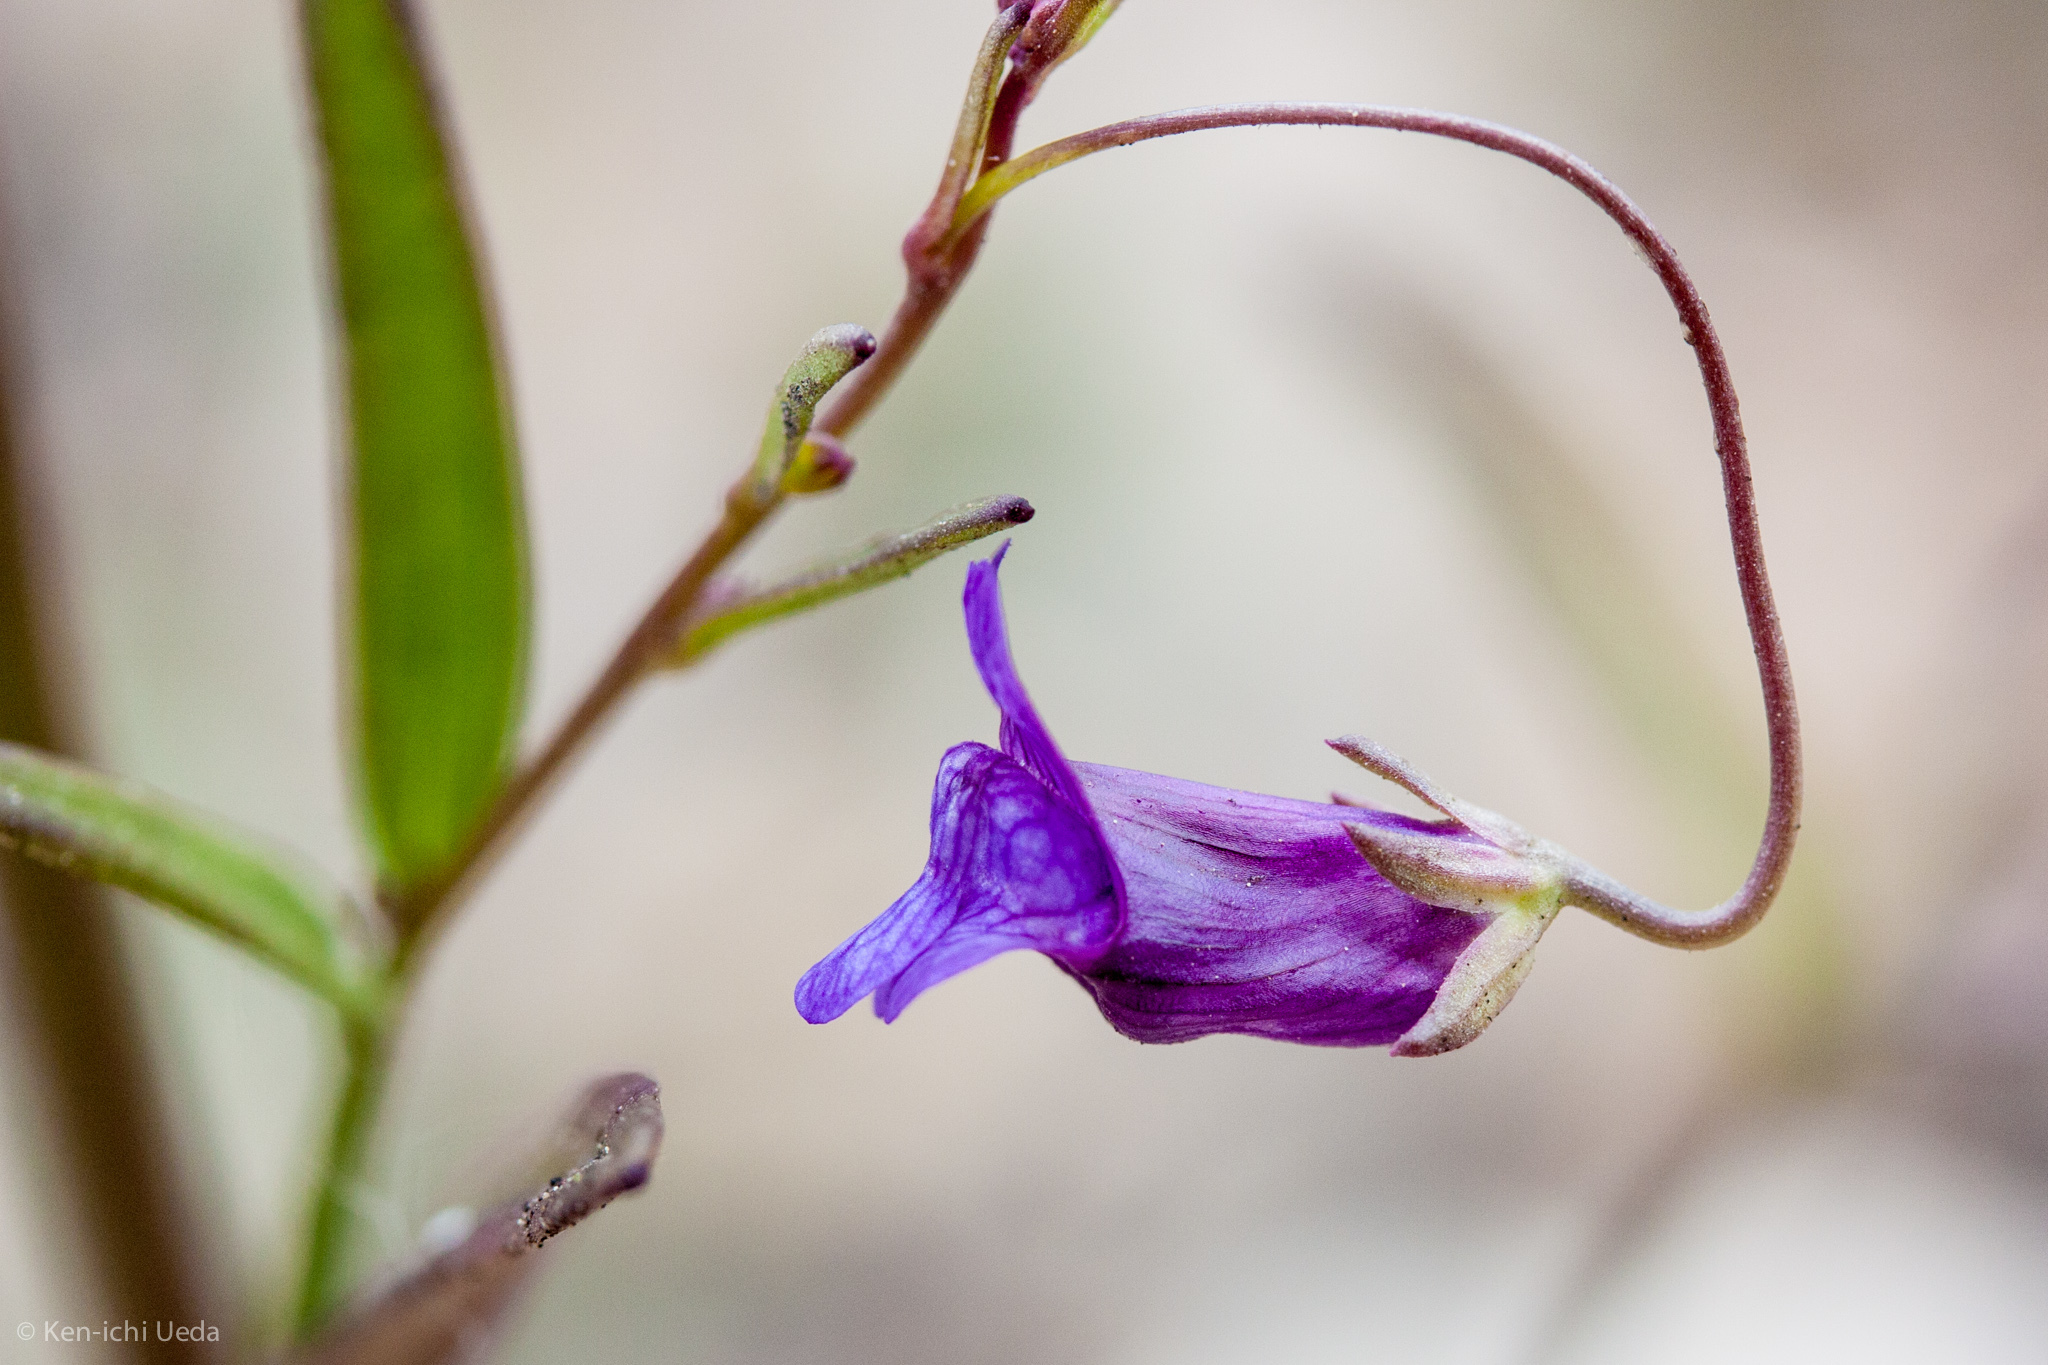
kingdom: Plantae
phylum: Tracheophyta
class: Magnoliopsida
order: Lamiales
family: Plantaginaceae
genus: Neogaerrhinum
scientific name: Neogaerrhinum strictum
